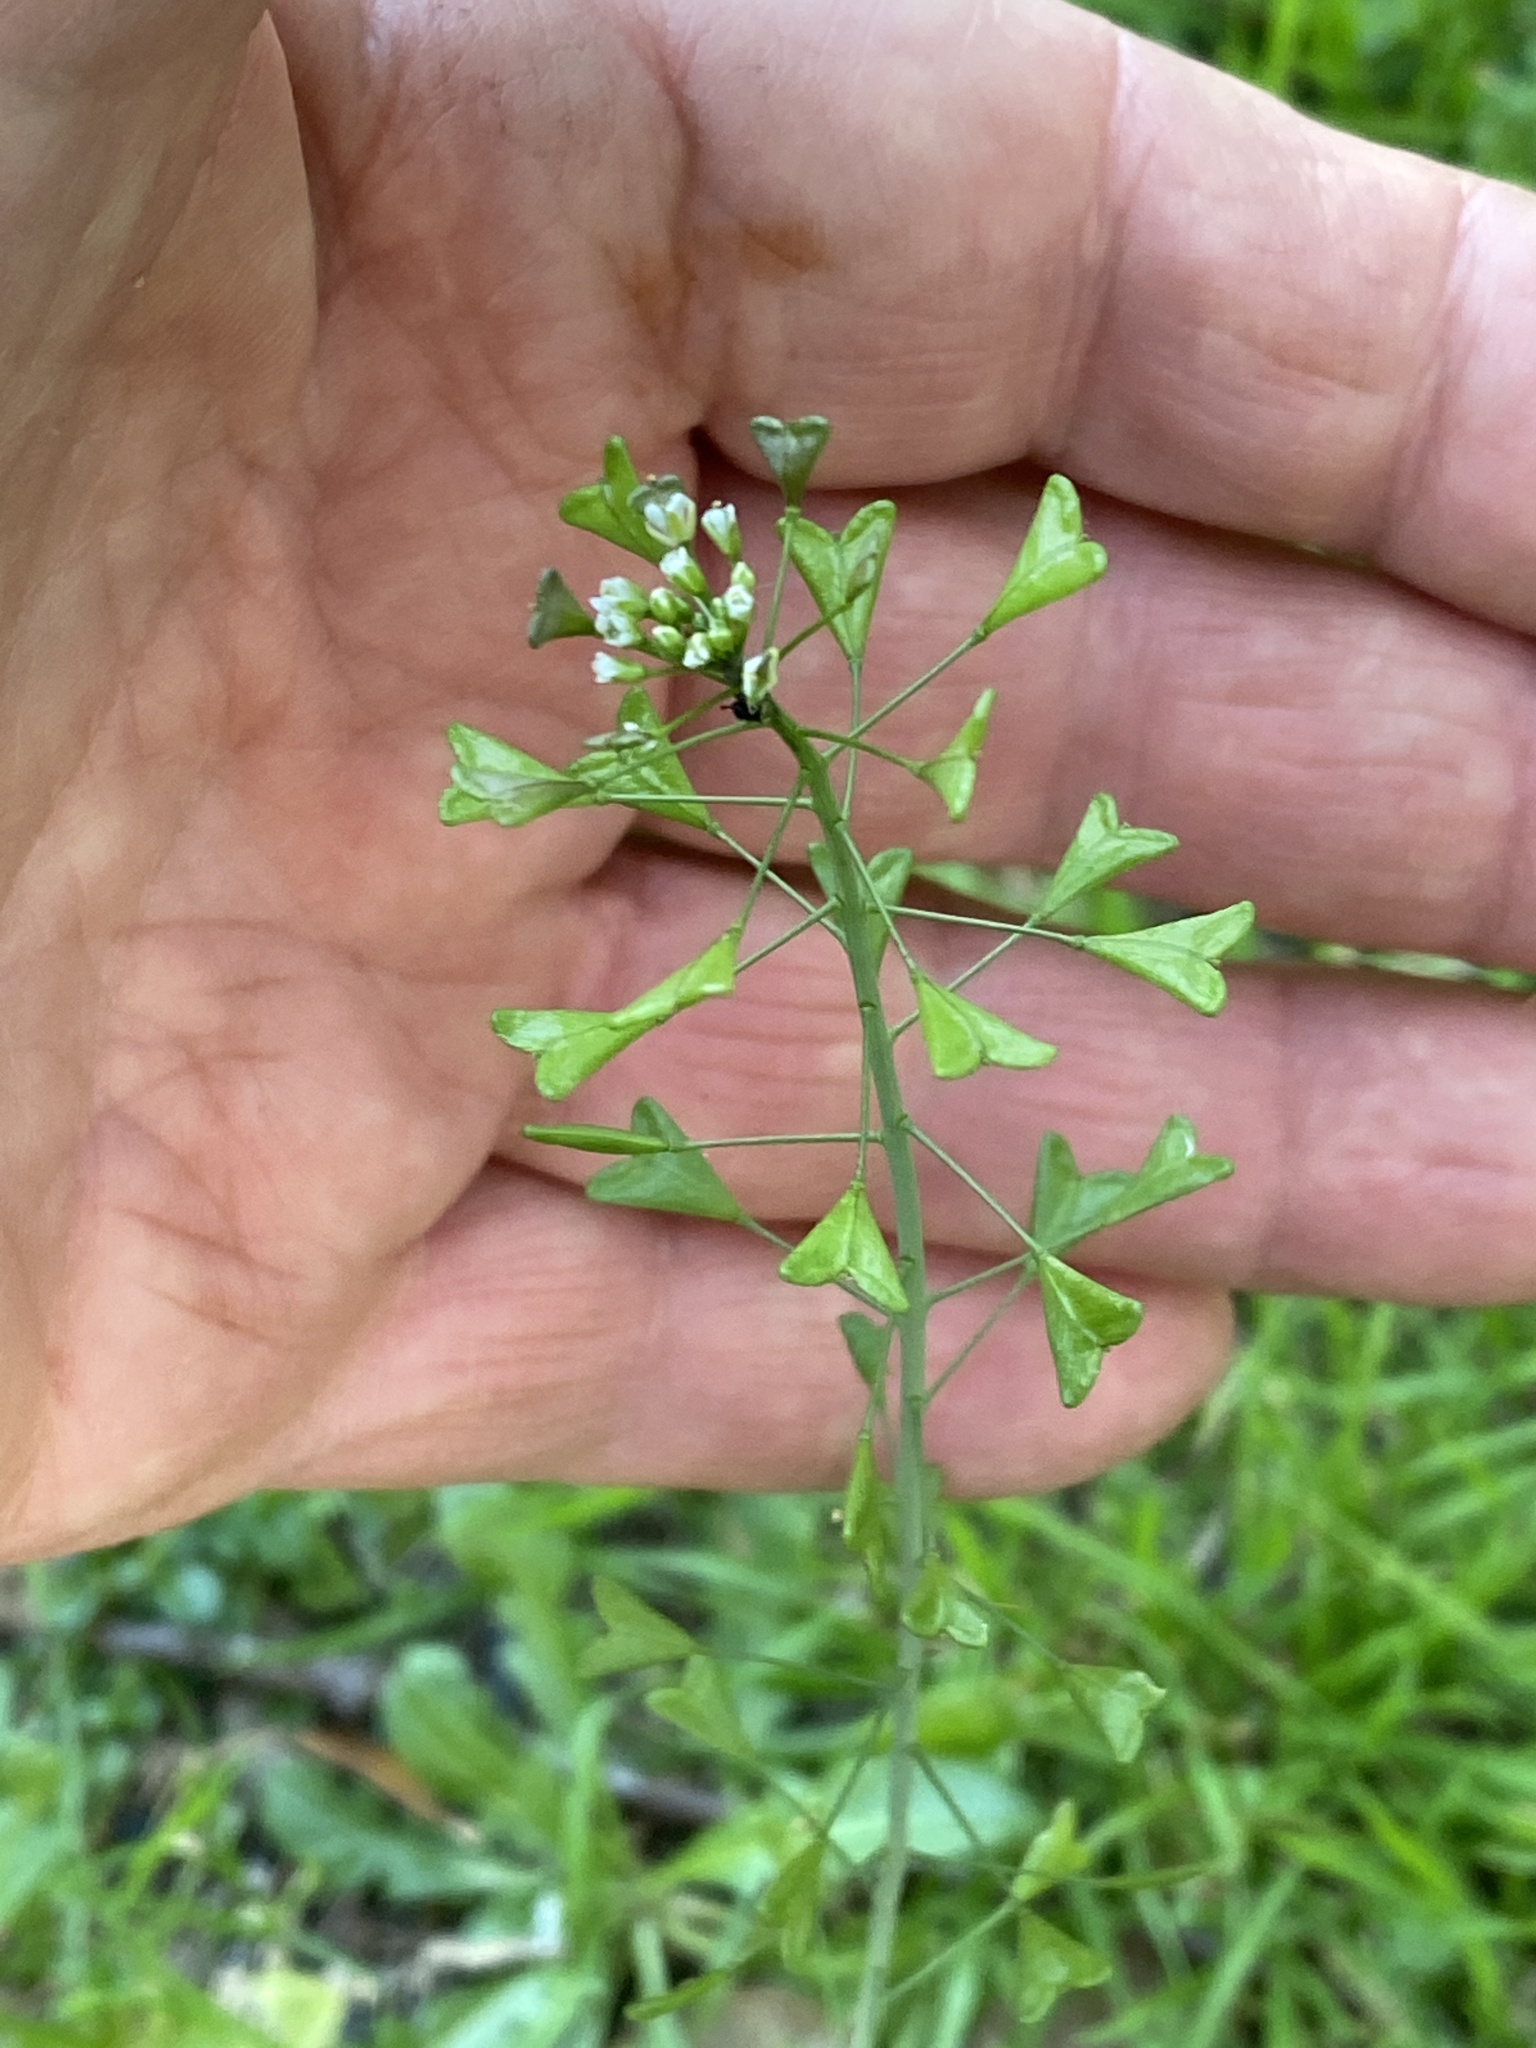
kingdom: Plantae
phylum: Tracheophyta
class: Magnoliopsida
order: Brassicales
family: Brassicaceae
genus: Capsella
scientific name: Capsella bursa-pastoris
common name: Shepherd's purse
